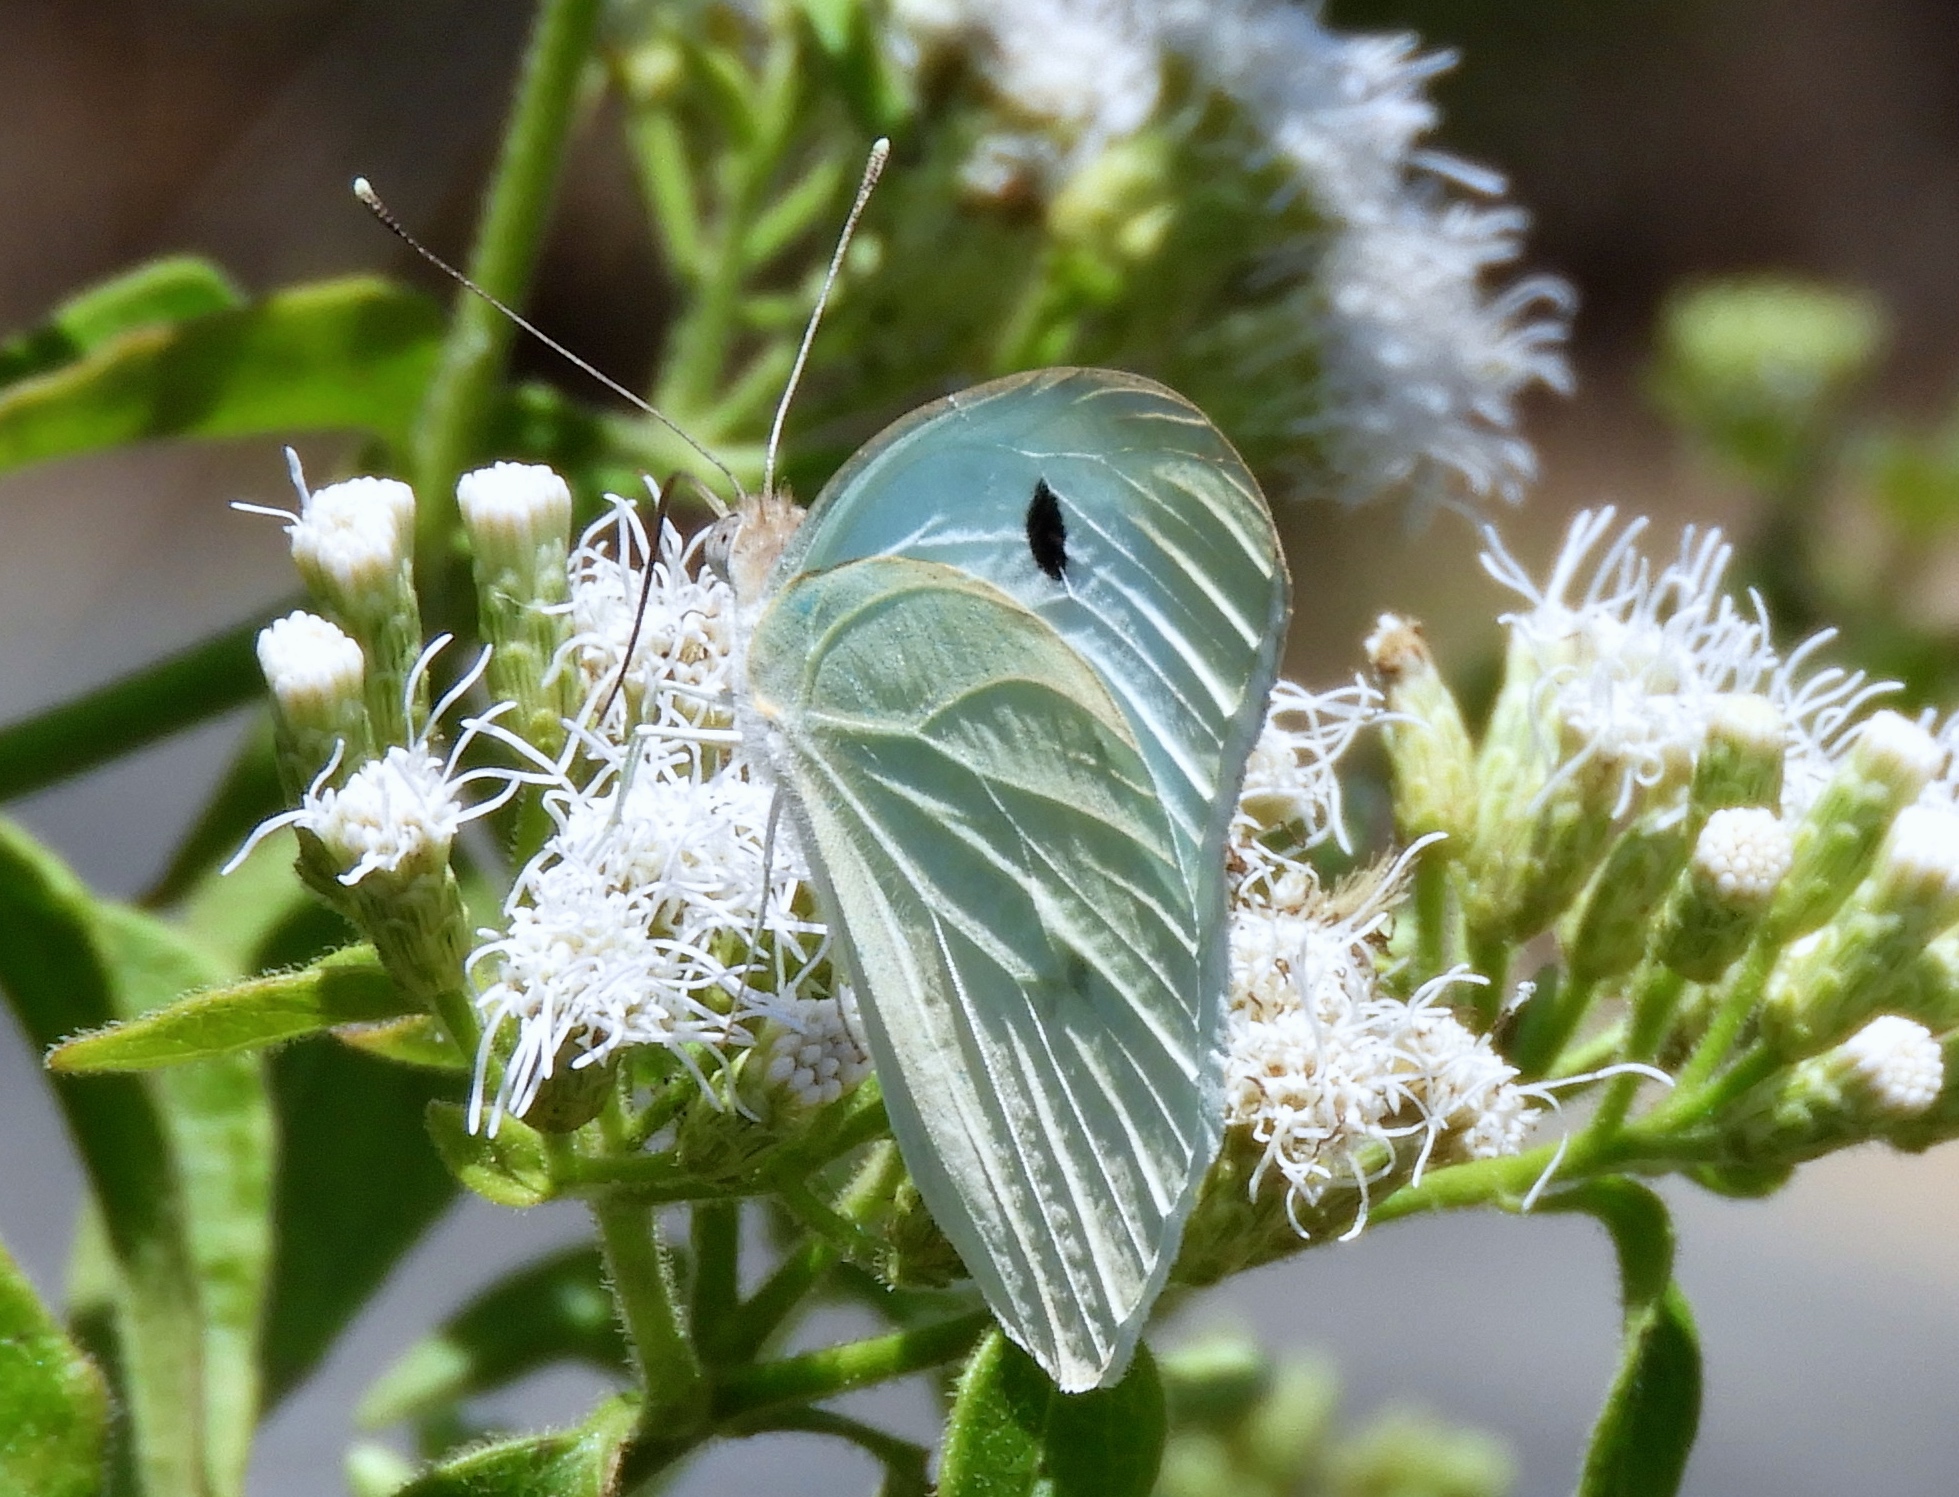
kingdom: Animalia
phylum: Arthropoda
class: Insecta
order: Lepidoptera
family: Pieridae
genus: Ganyra
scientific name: Ganyra josephina
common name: Giant white
